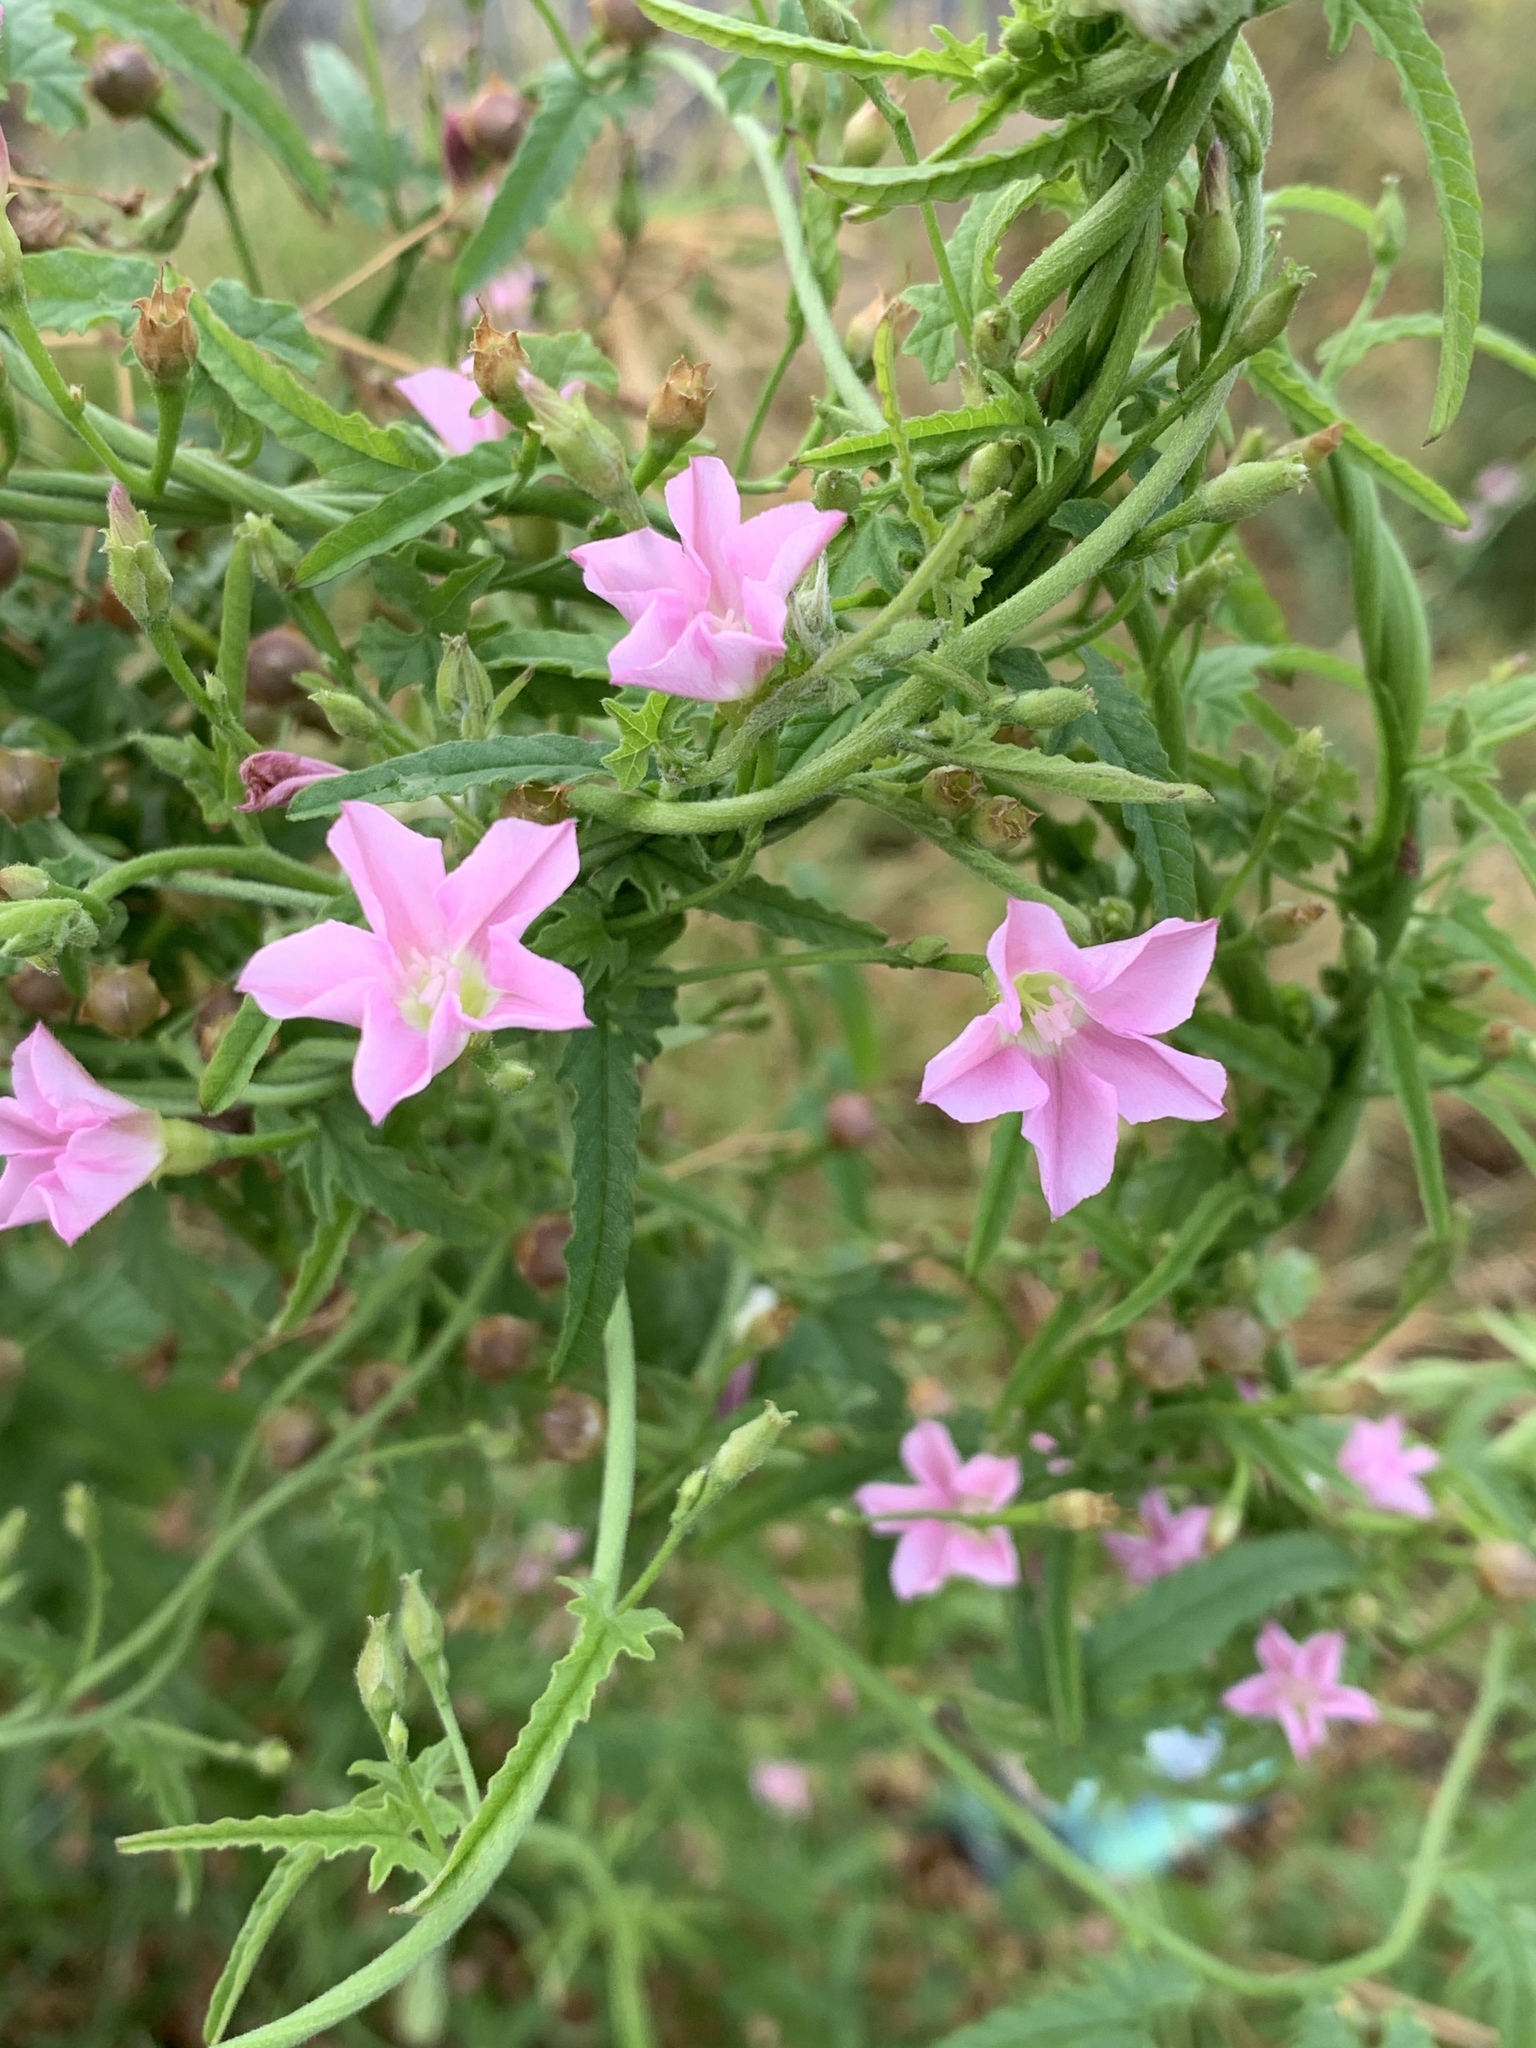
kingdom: Plantae
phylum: Tracheophyta
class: Magnoliopsida
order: Solanales
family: Convolvulaceae
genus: Convolvulus
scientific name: Convolvulus erubescens
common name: Australian bindweed
